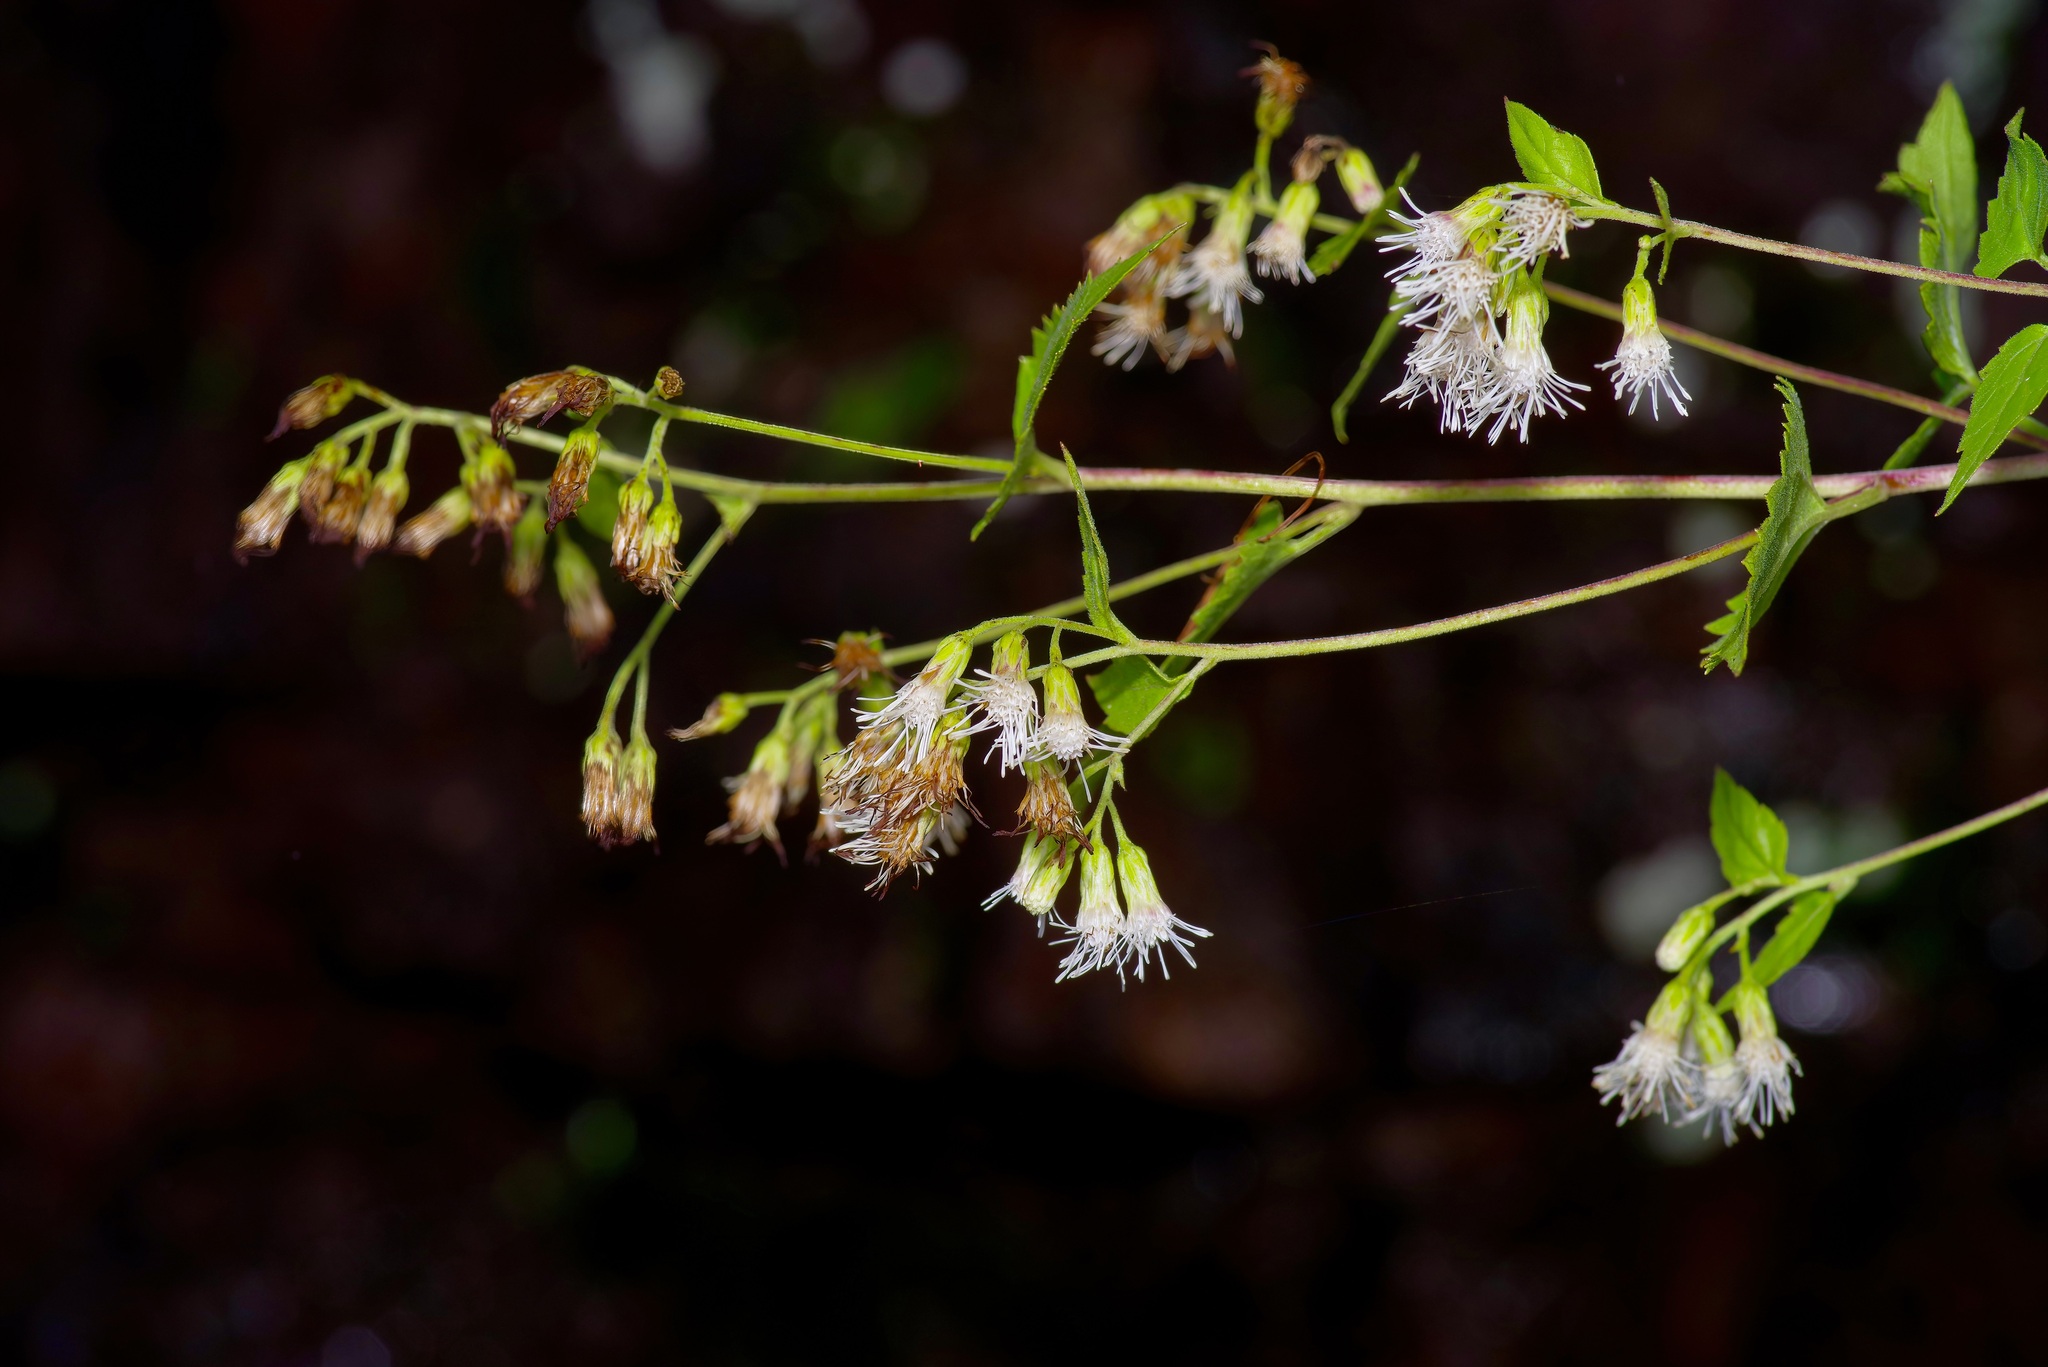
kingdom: Plantae
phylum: Tracheophyta
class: Magnoliopsida
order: Asterales
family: Asteraceae
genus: Brickelliastrum
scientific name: Brickelliastrum fendleri
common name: Fendler's-brickellbush
